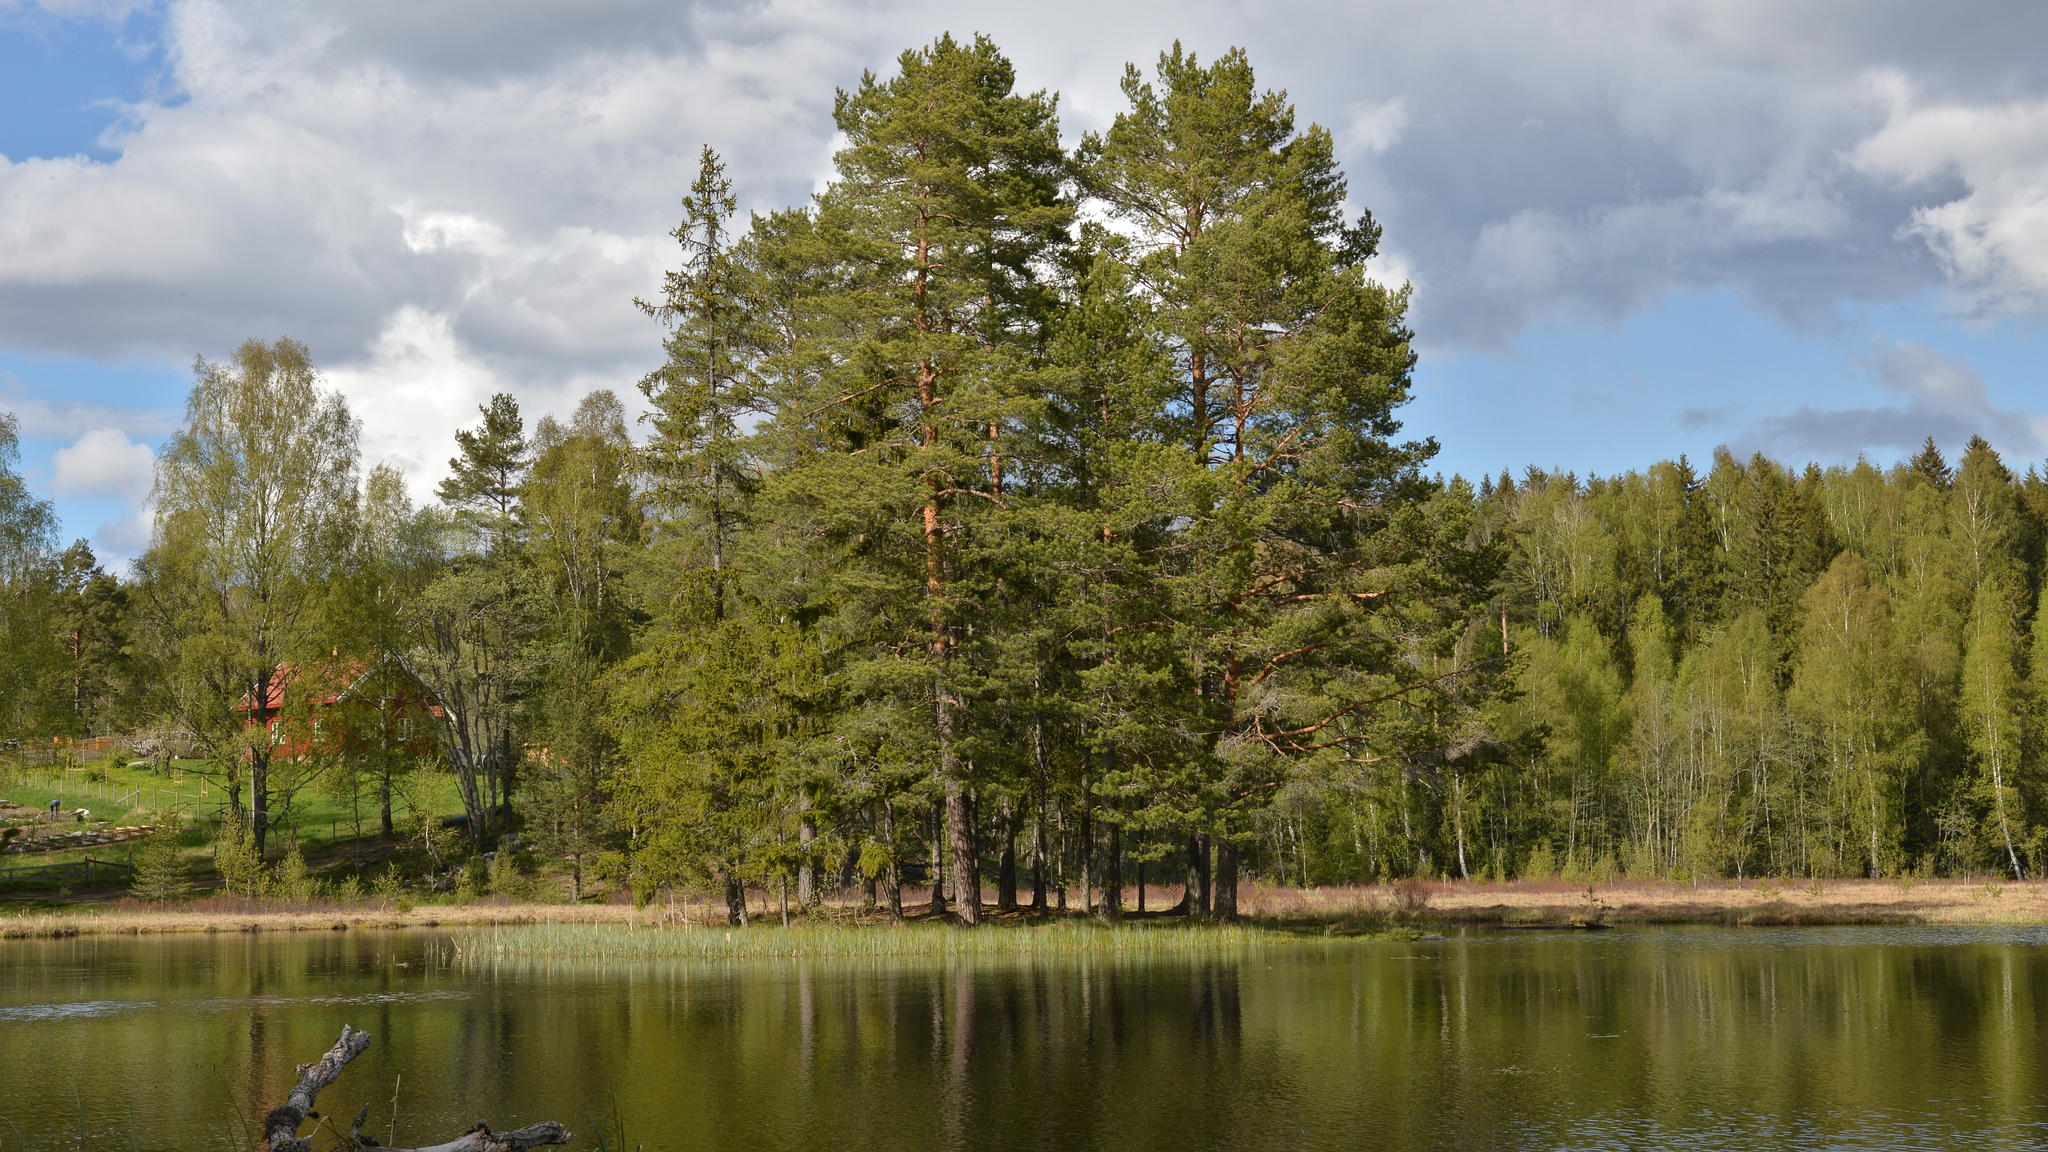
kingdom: Plantae
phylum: Tracheophyta
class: Pinopsida
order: Pinales
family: Pinaceae
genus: Pinus
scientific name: Pinus sylvestris
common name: Scots pine
